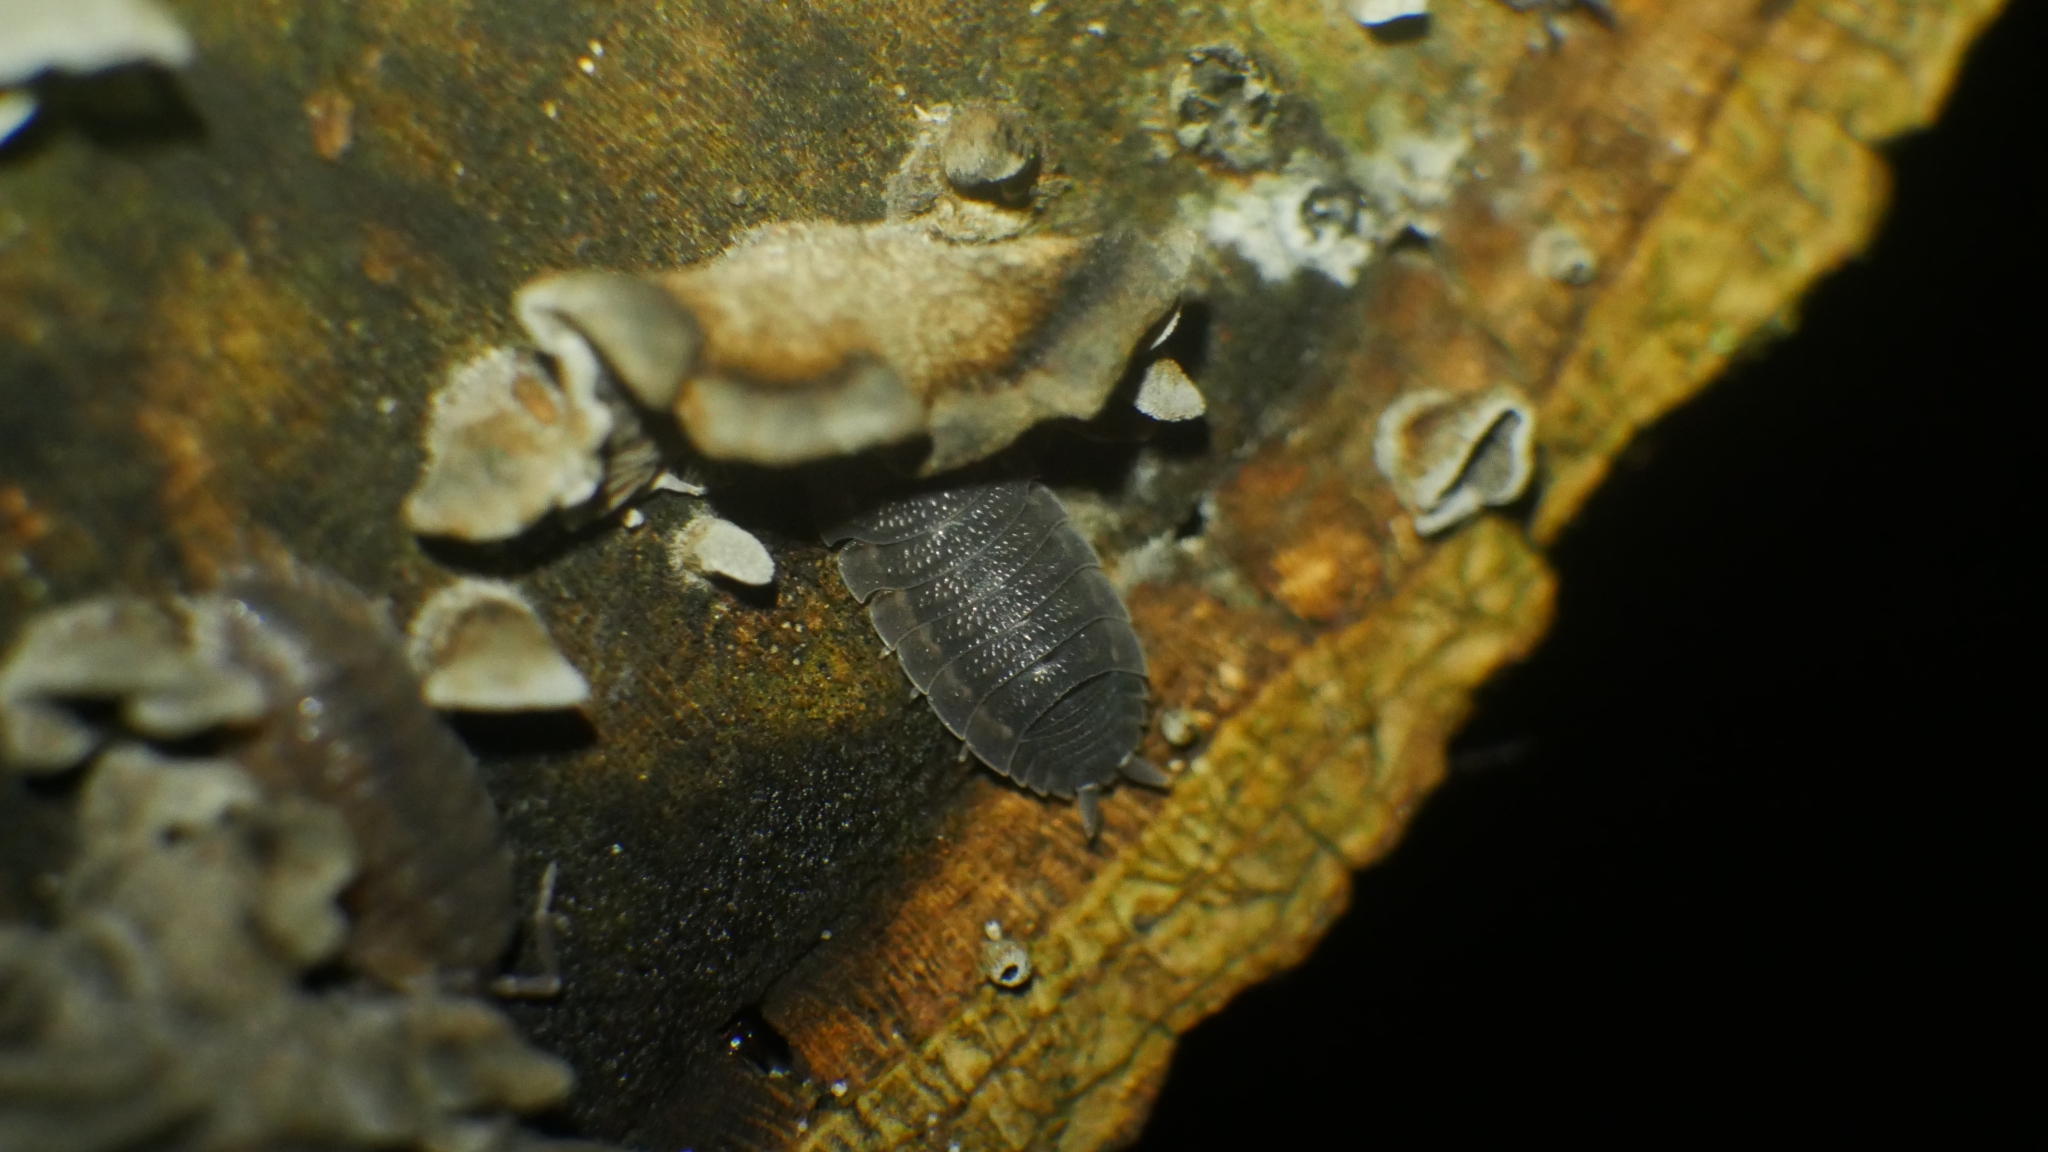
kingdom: Animalia
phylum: Arthropoda
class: Malacostraca
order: Isopoda
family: Porcellionidae
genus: Porcellio
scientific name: Porcellio scaber
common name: Common rough woodlouse
